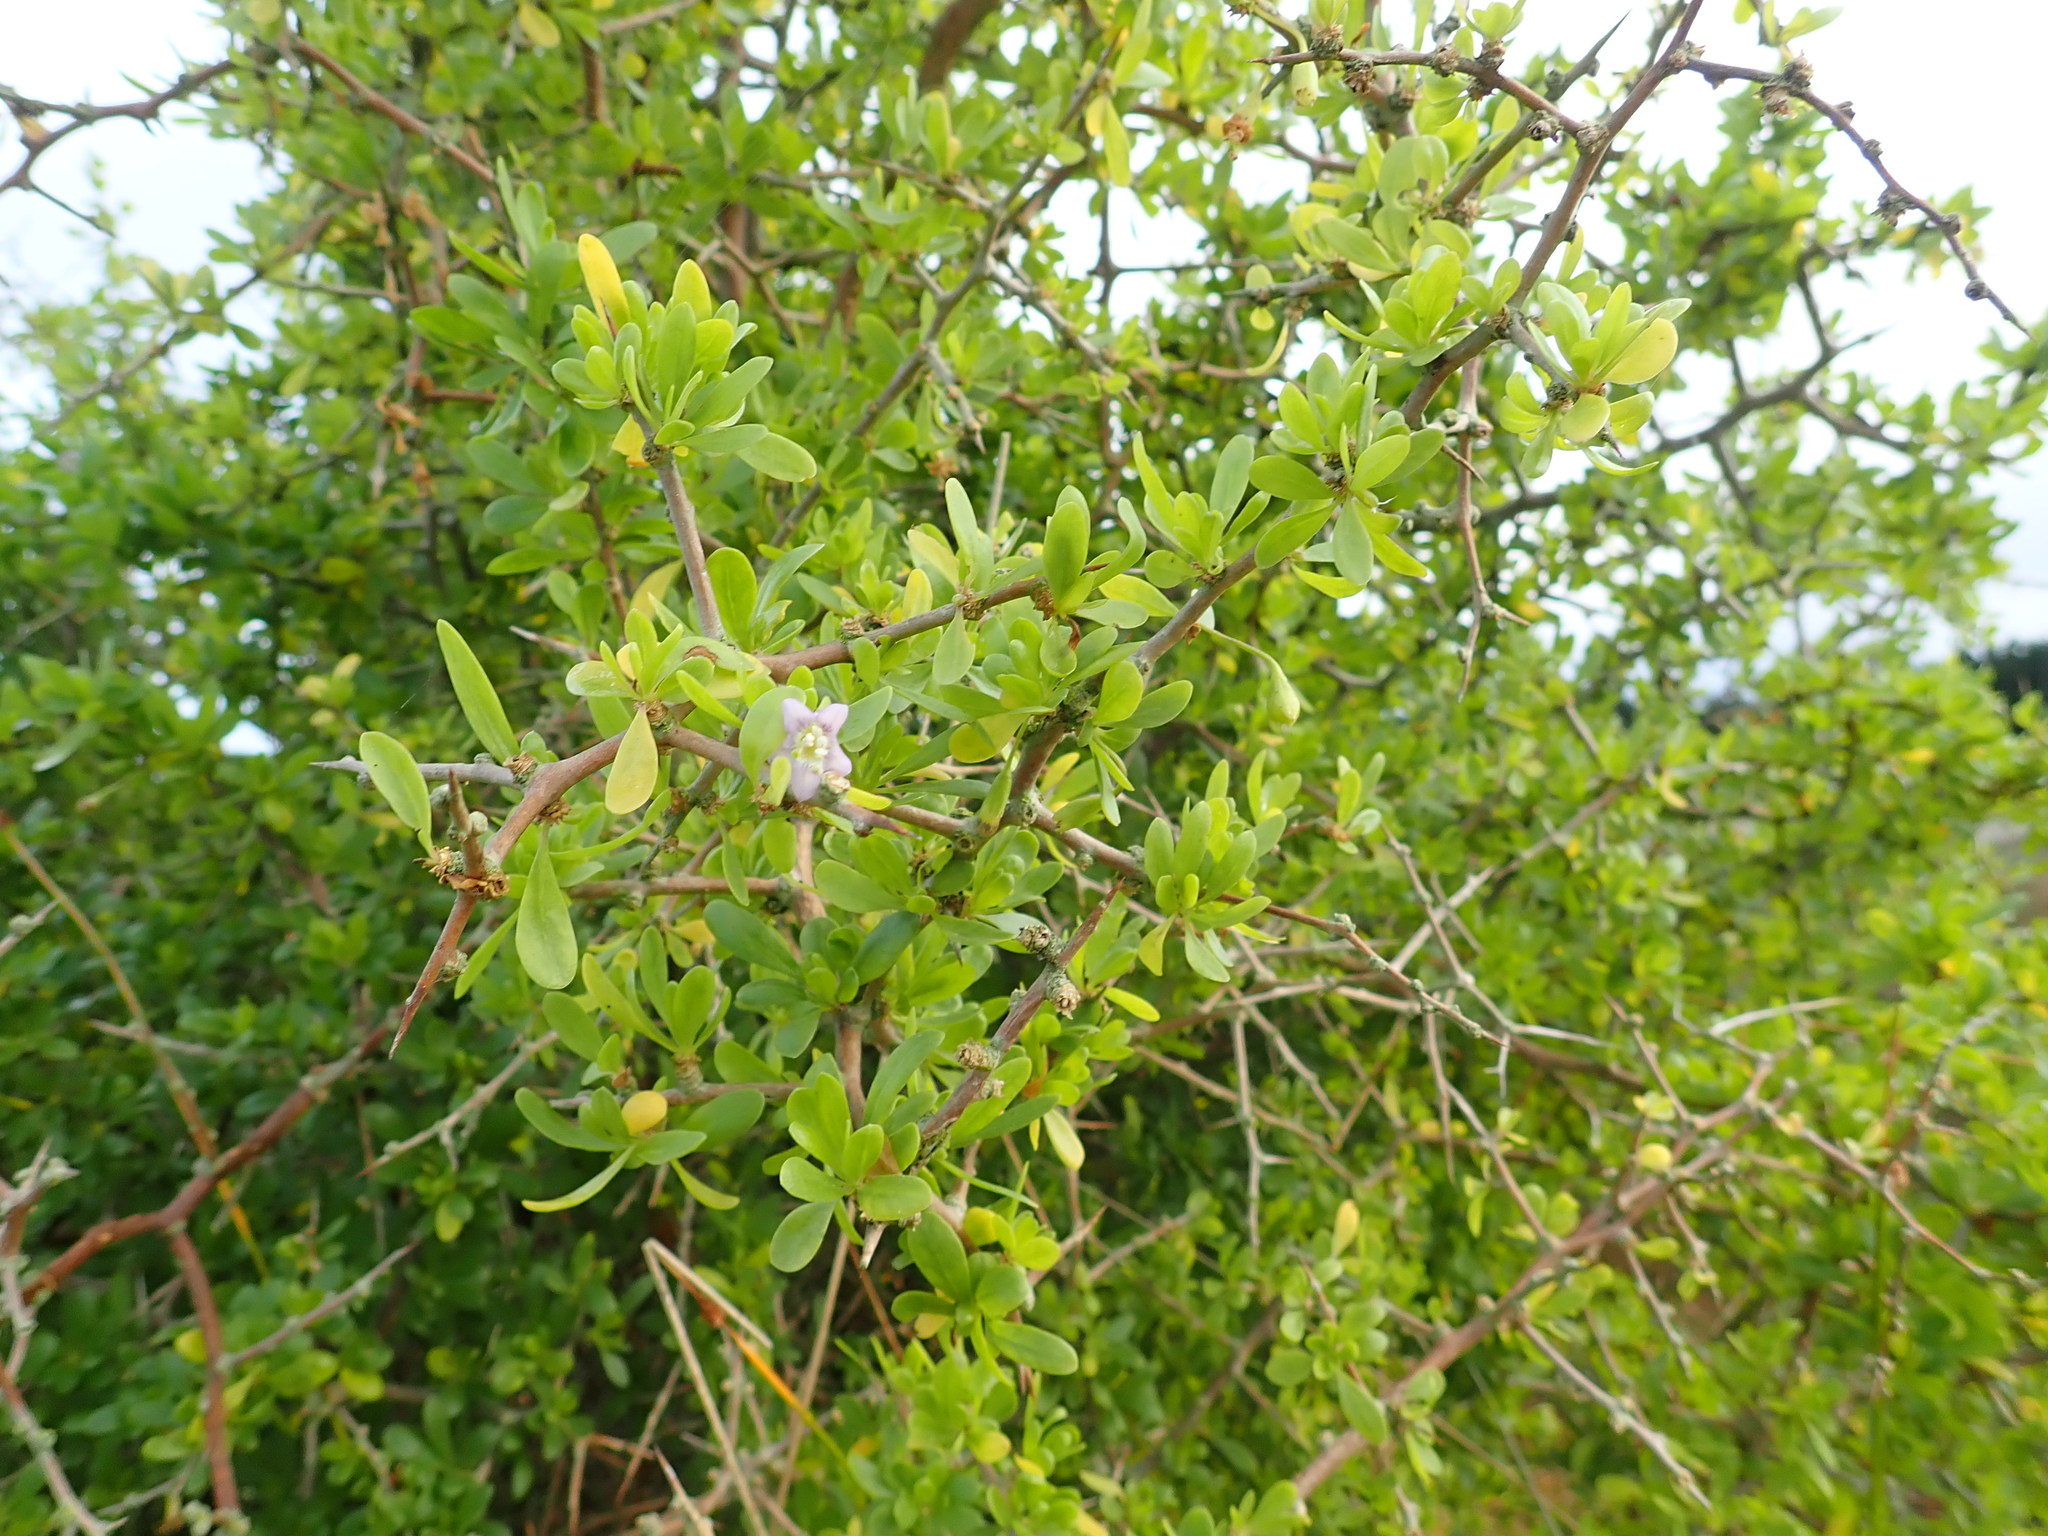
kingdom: Plantae
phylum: Tracheophyta
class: Magnoliopsida
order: Solanales
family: Solanaceae
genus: Lycium
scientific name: Lycium ferocissimum
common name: African boxthorn
